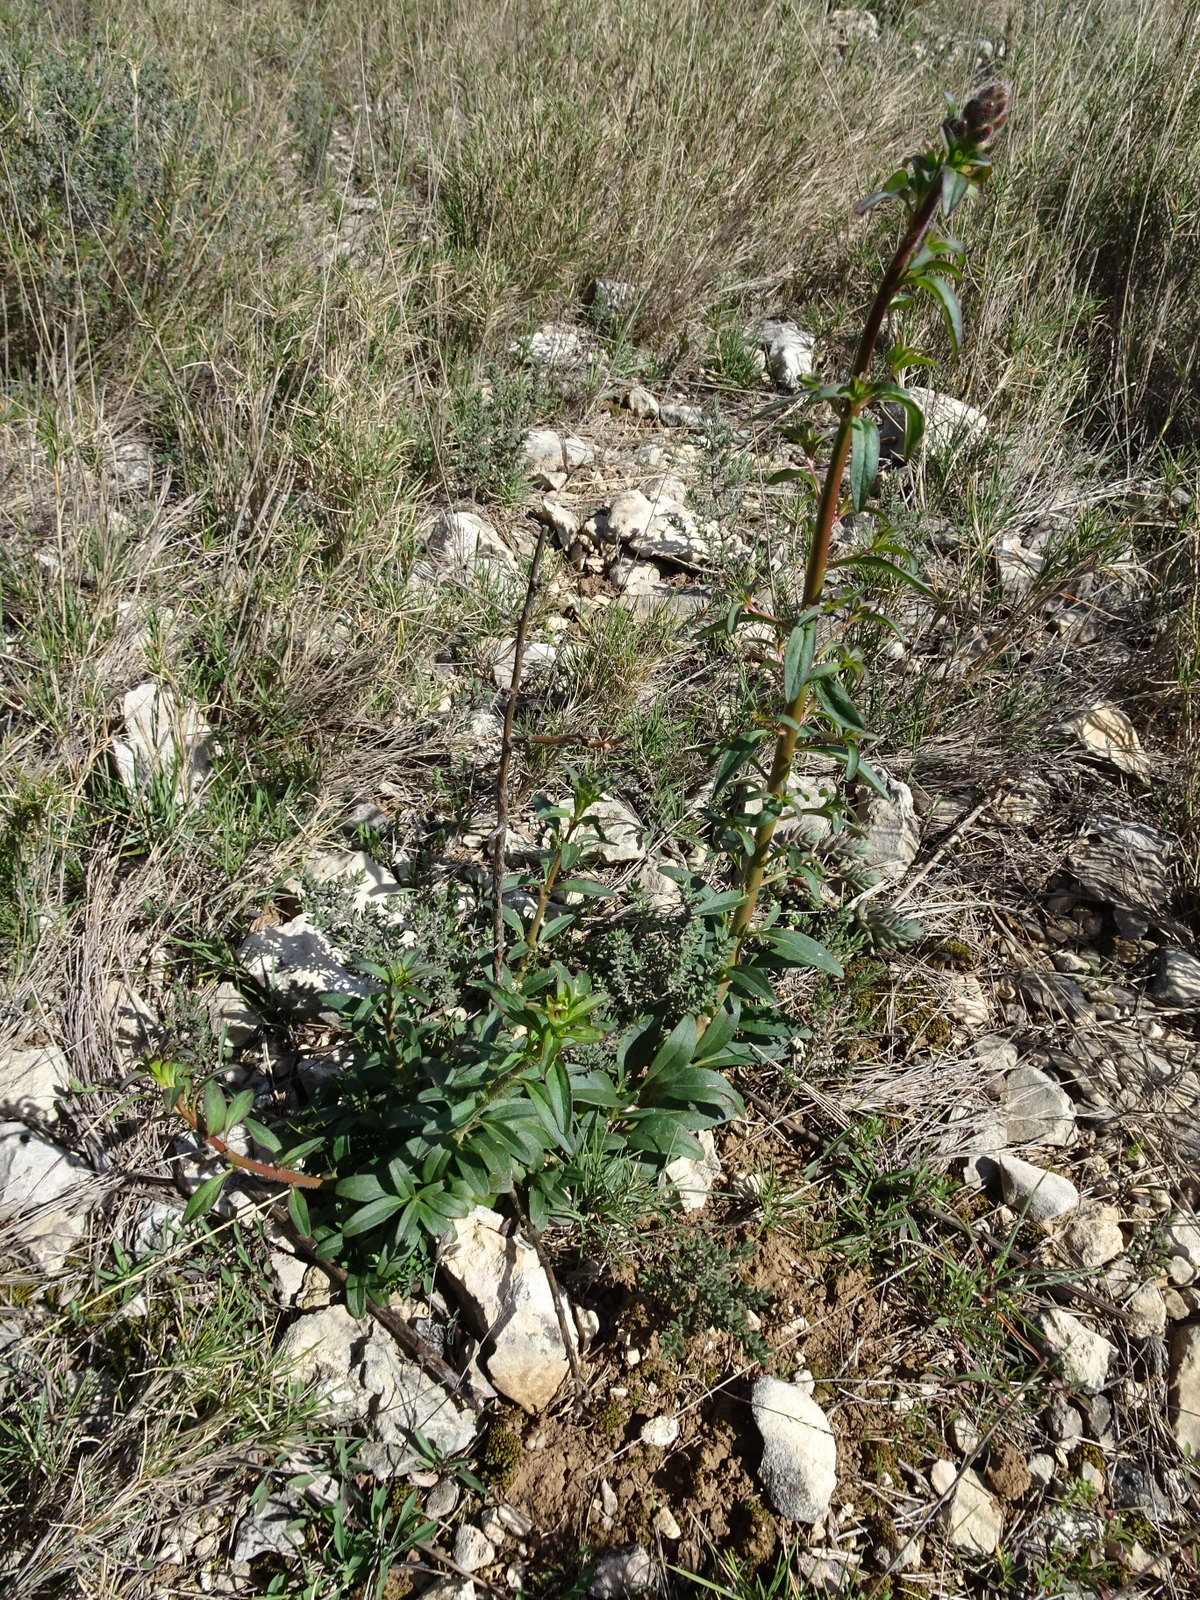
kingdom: Plantae
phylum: Tracheophyta
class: Magnoliopsida
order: Lamiales
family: Plantaginaceae
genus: Antirrhinum
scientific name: Antirrhinum majus
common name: Snapdragon
